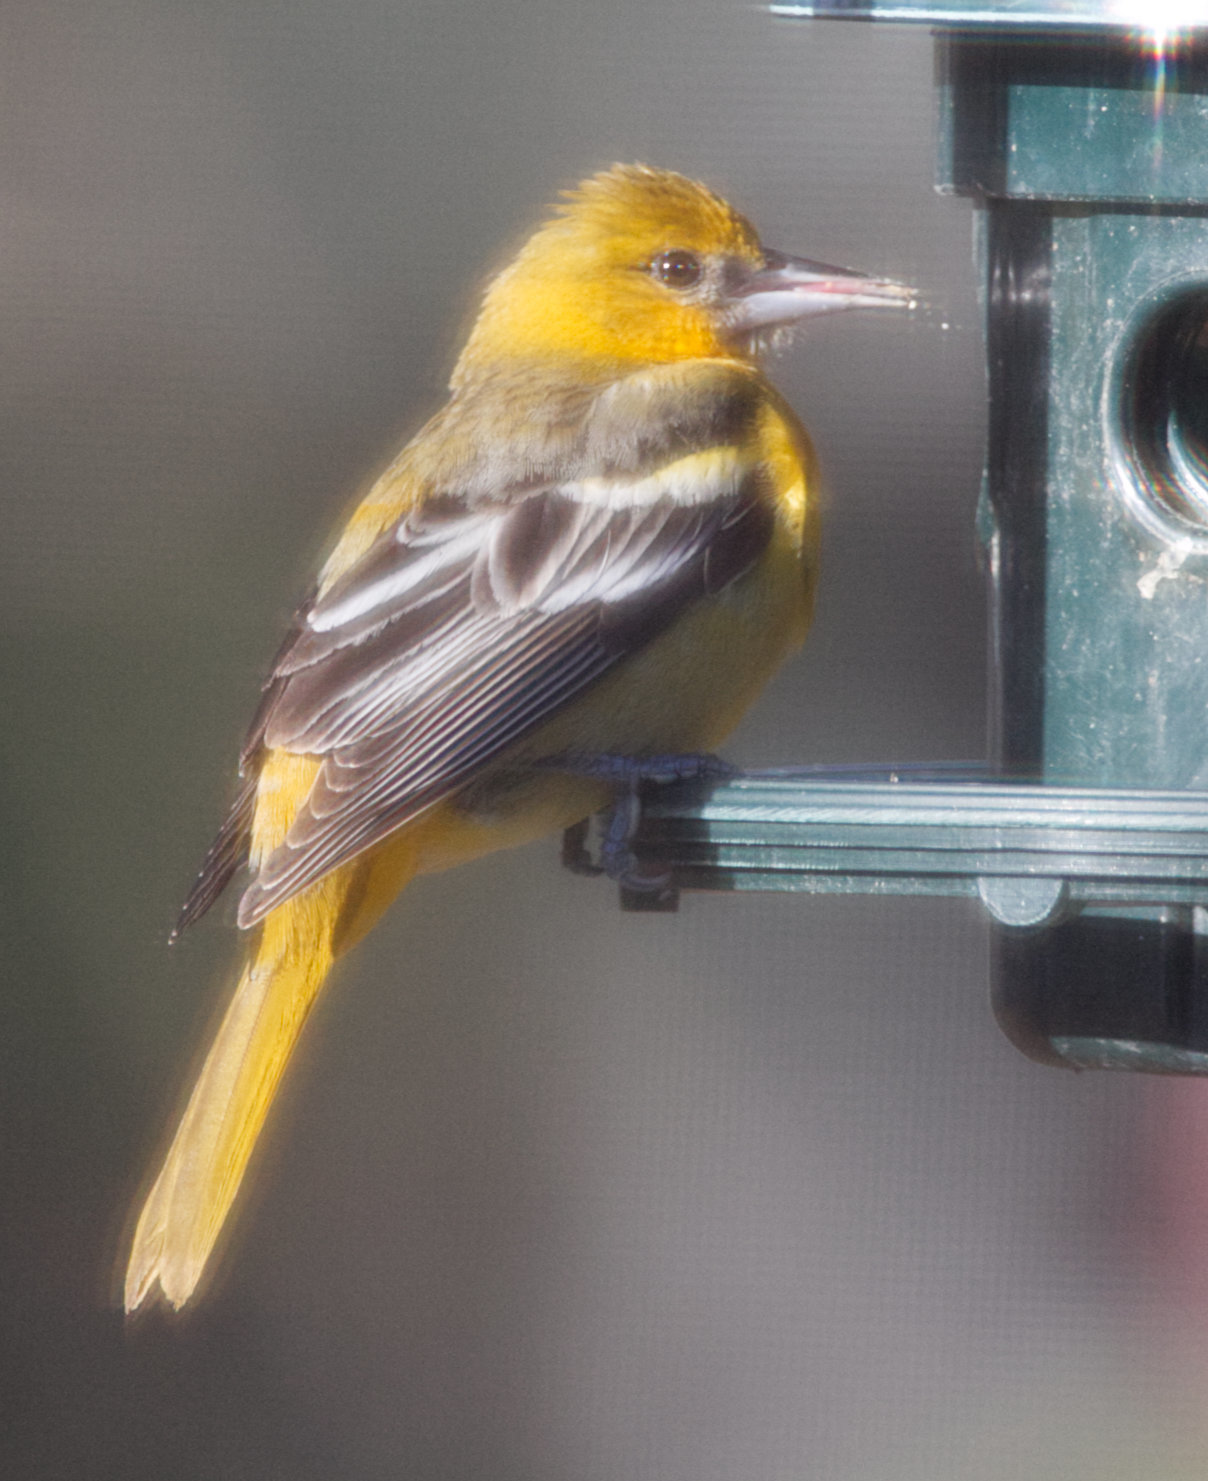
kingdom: Animalia
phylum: Chordata
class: Aves
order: Passeriformes
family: Icteridae
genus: Icterus
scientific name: Icterus galbula
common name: Baltimore oriole
